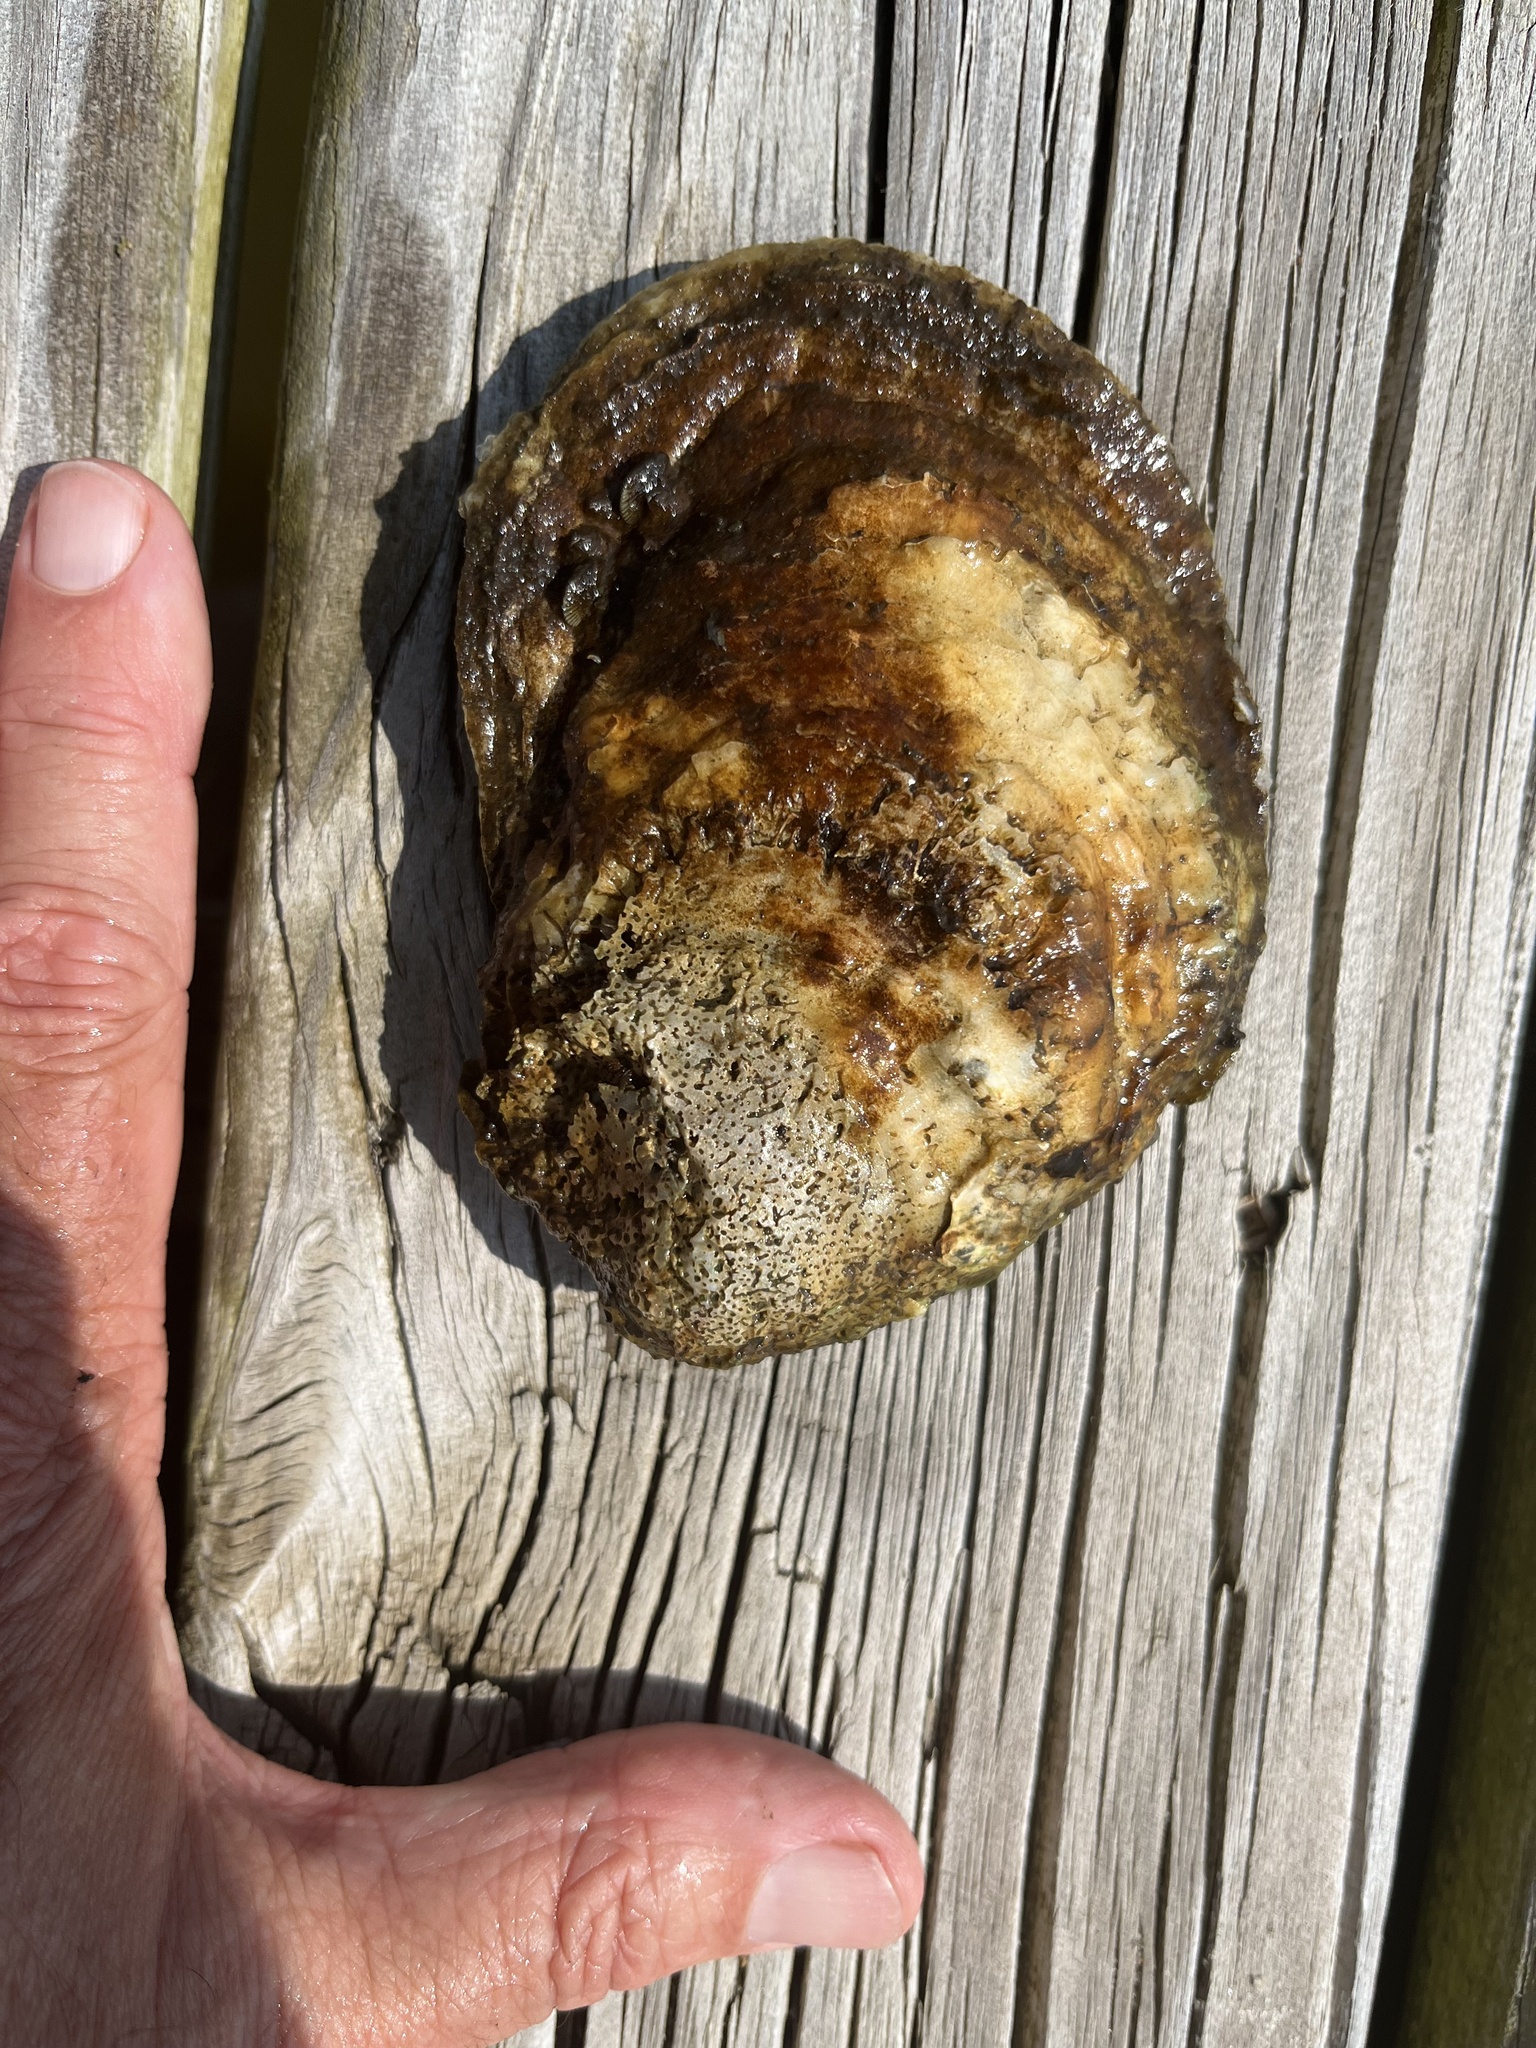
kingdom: Animalia
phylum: Mollusca
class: Bivalvia
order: Ostreida
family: Ostreidae
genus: Crassostrea
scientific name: Crassostrea virginica
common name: American oyster
